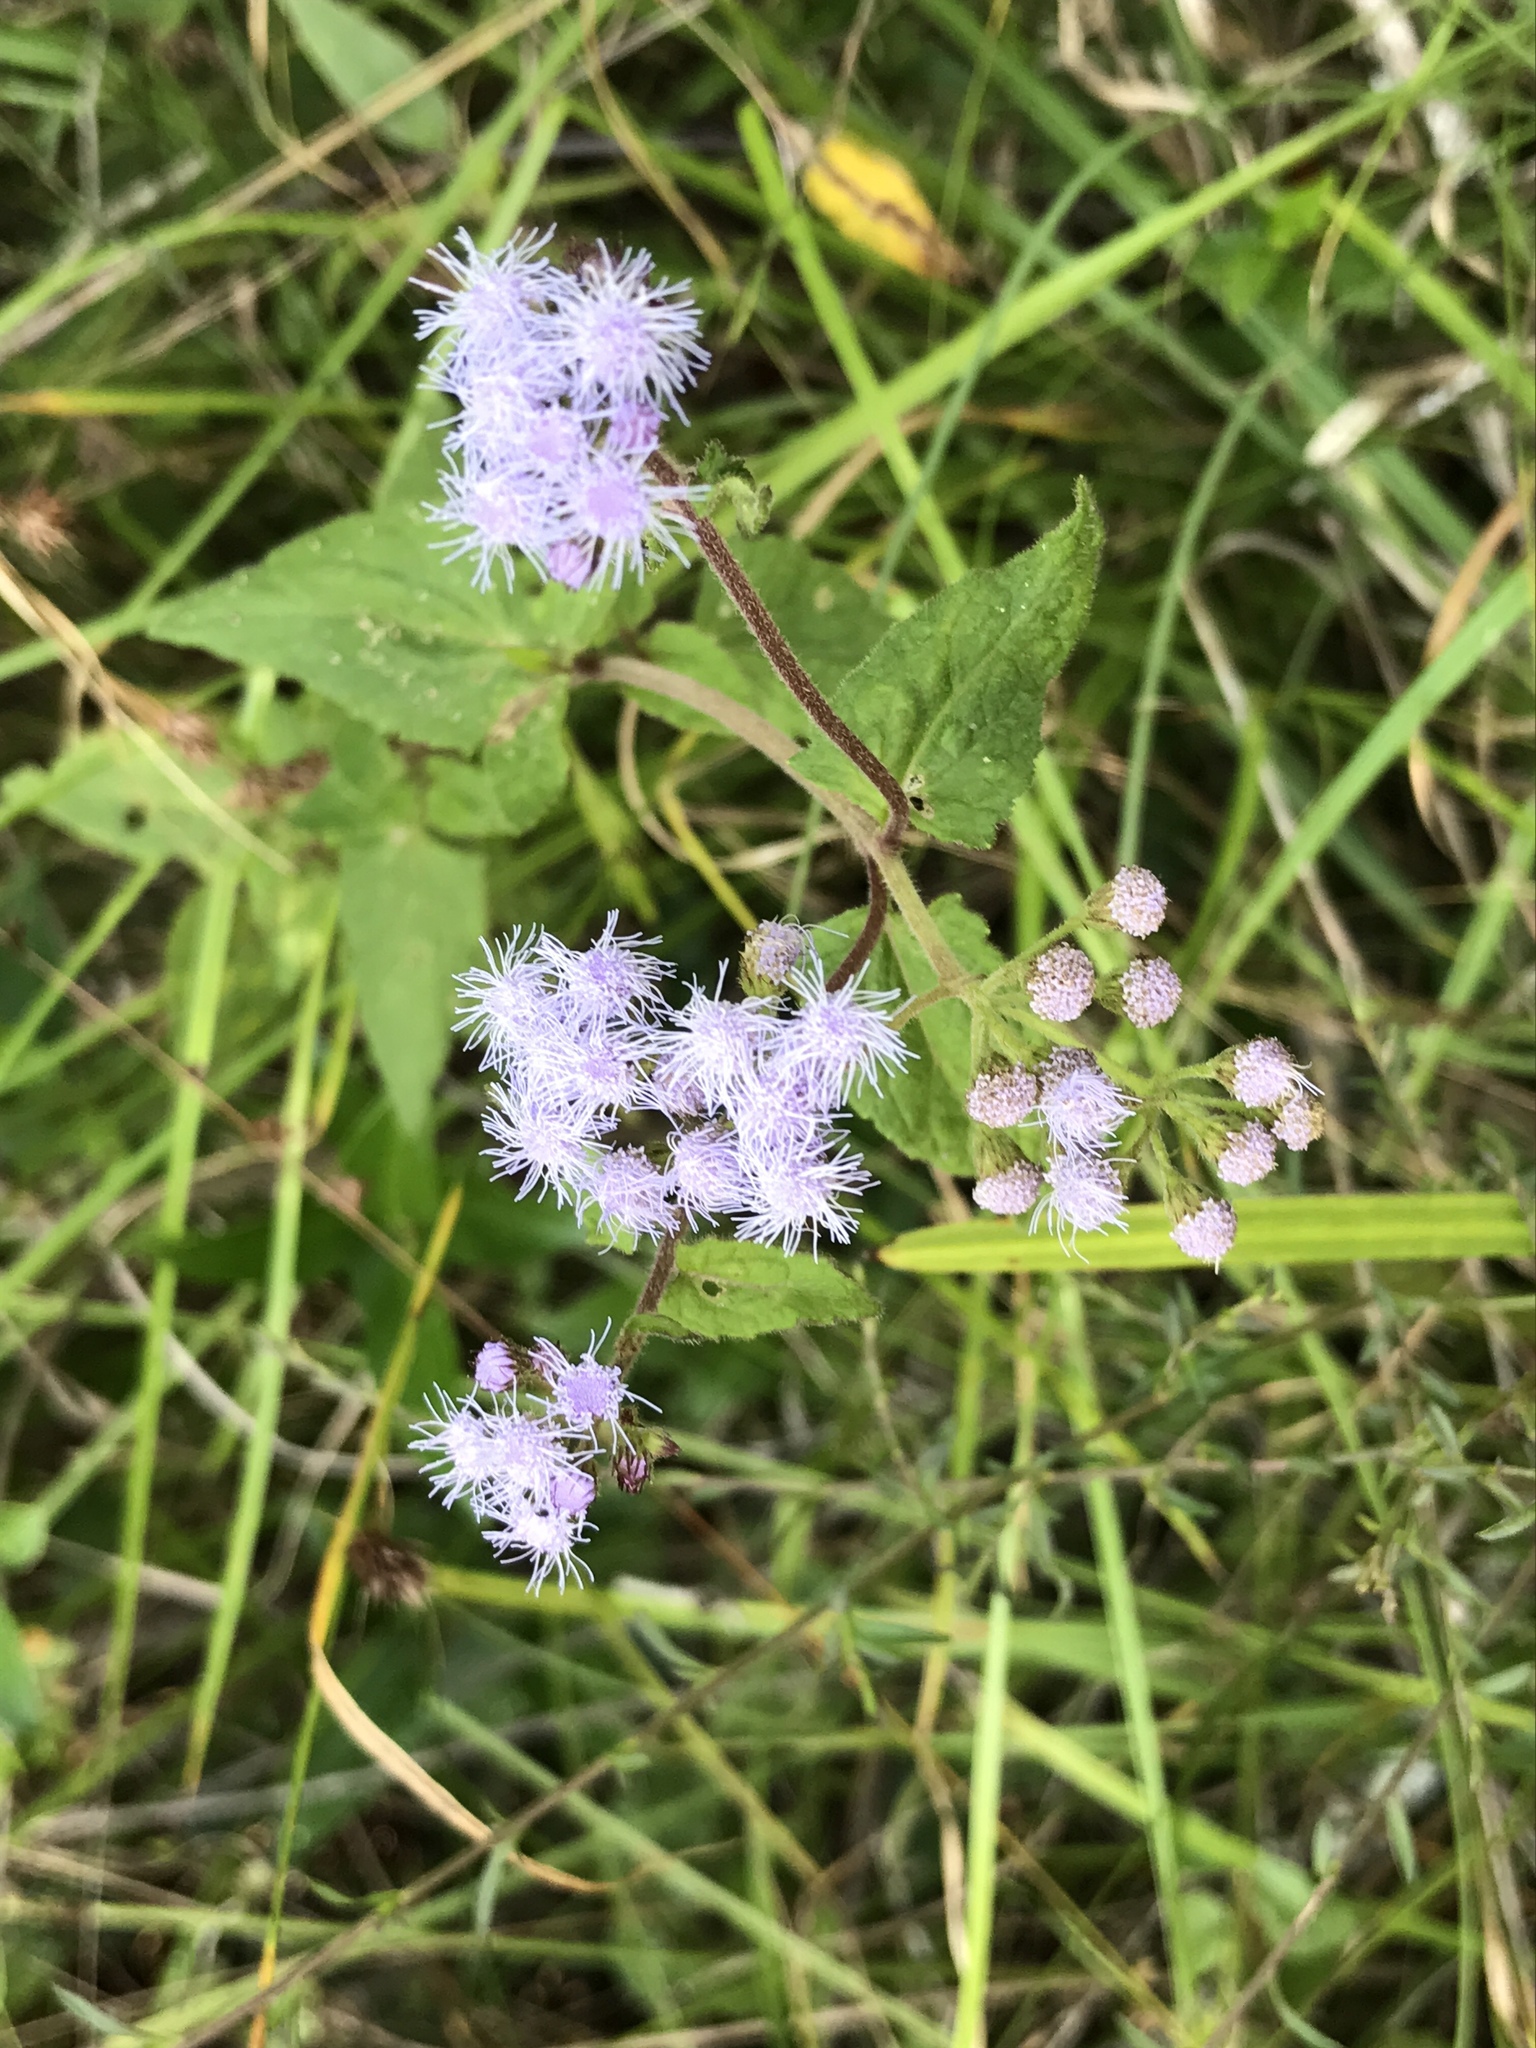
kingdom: Plantae
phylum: Tracheophyta
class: Magnoliopsida
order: Asterales
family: Asteraceae
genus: Conoclinium
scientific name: Conoclinium coelestinum
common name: Blue mistflower
